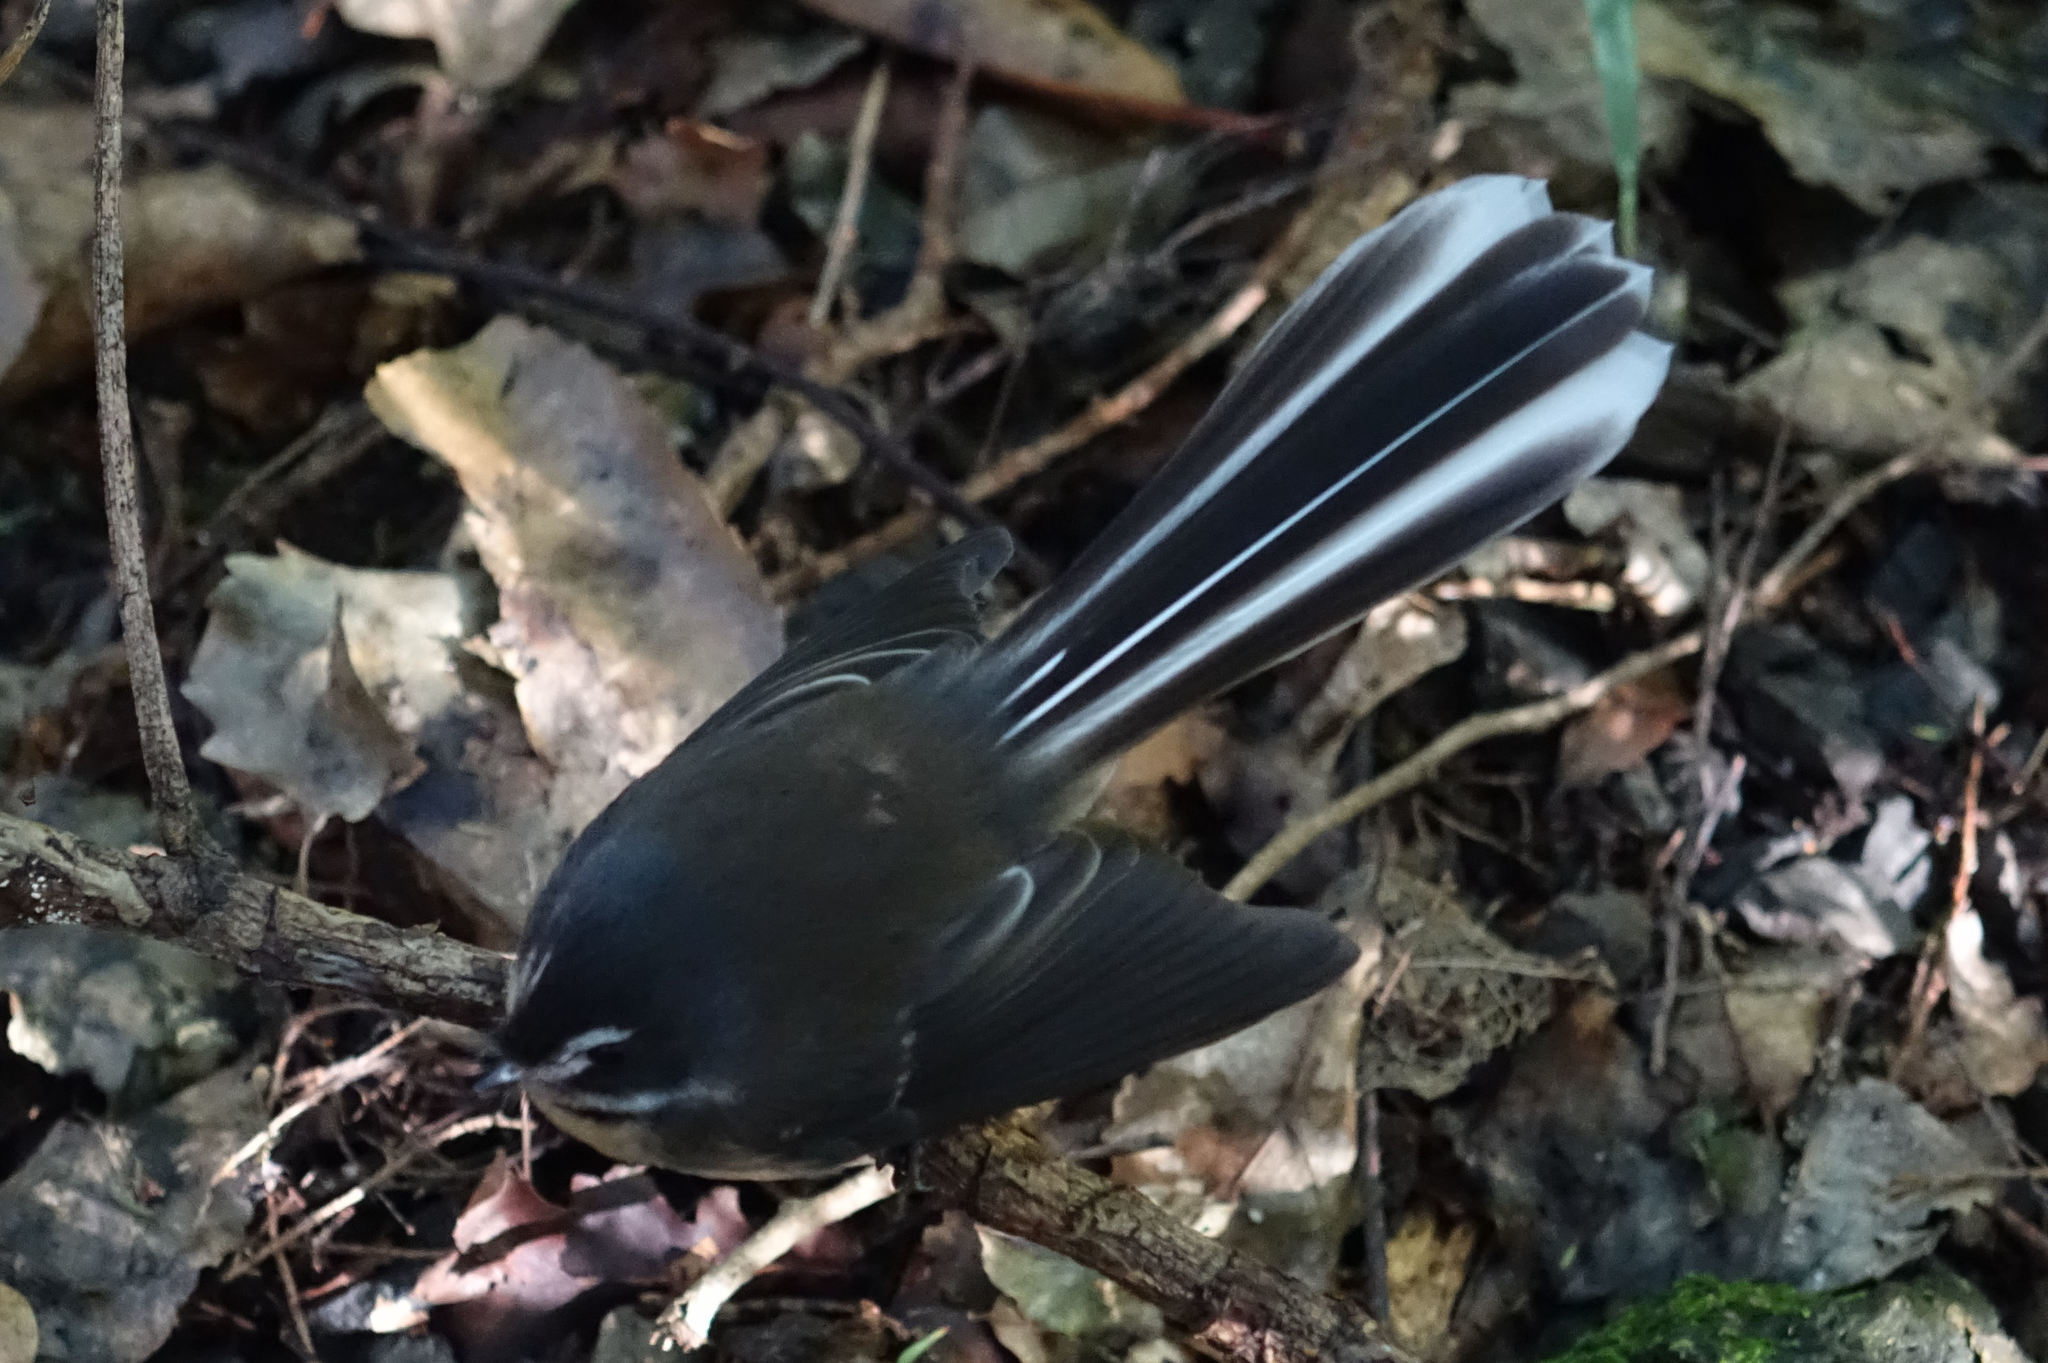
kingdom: Animalia
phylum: Chordata
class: Aves
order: Passeriformes
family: Rhipiduridae
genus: Rhipidura
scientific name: Rhipidura fuliginosa
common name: New zealand fantail
